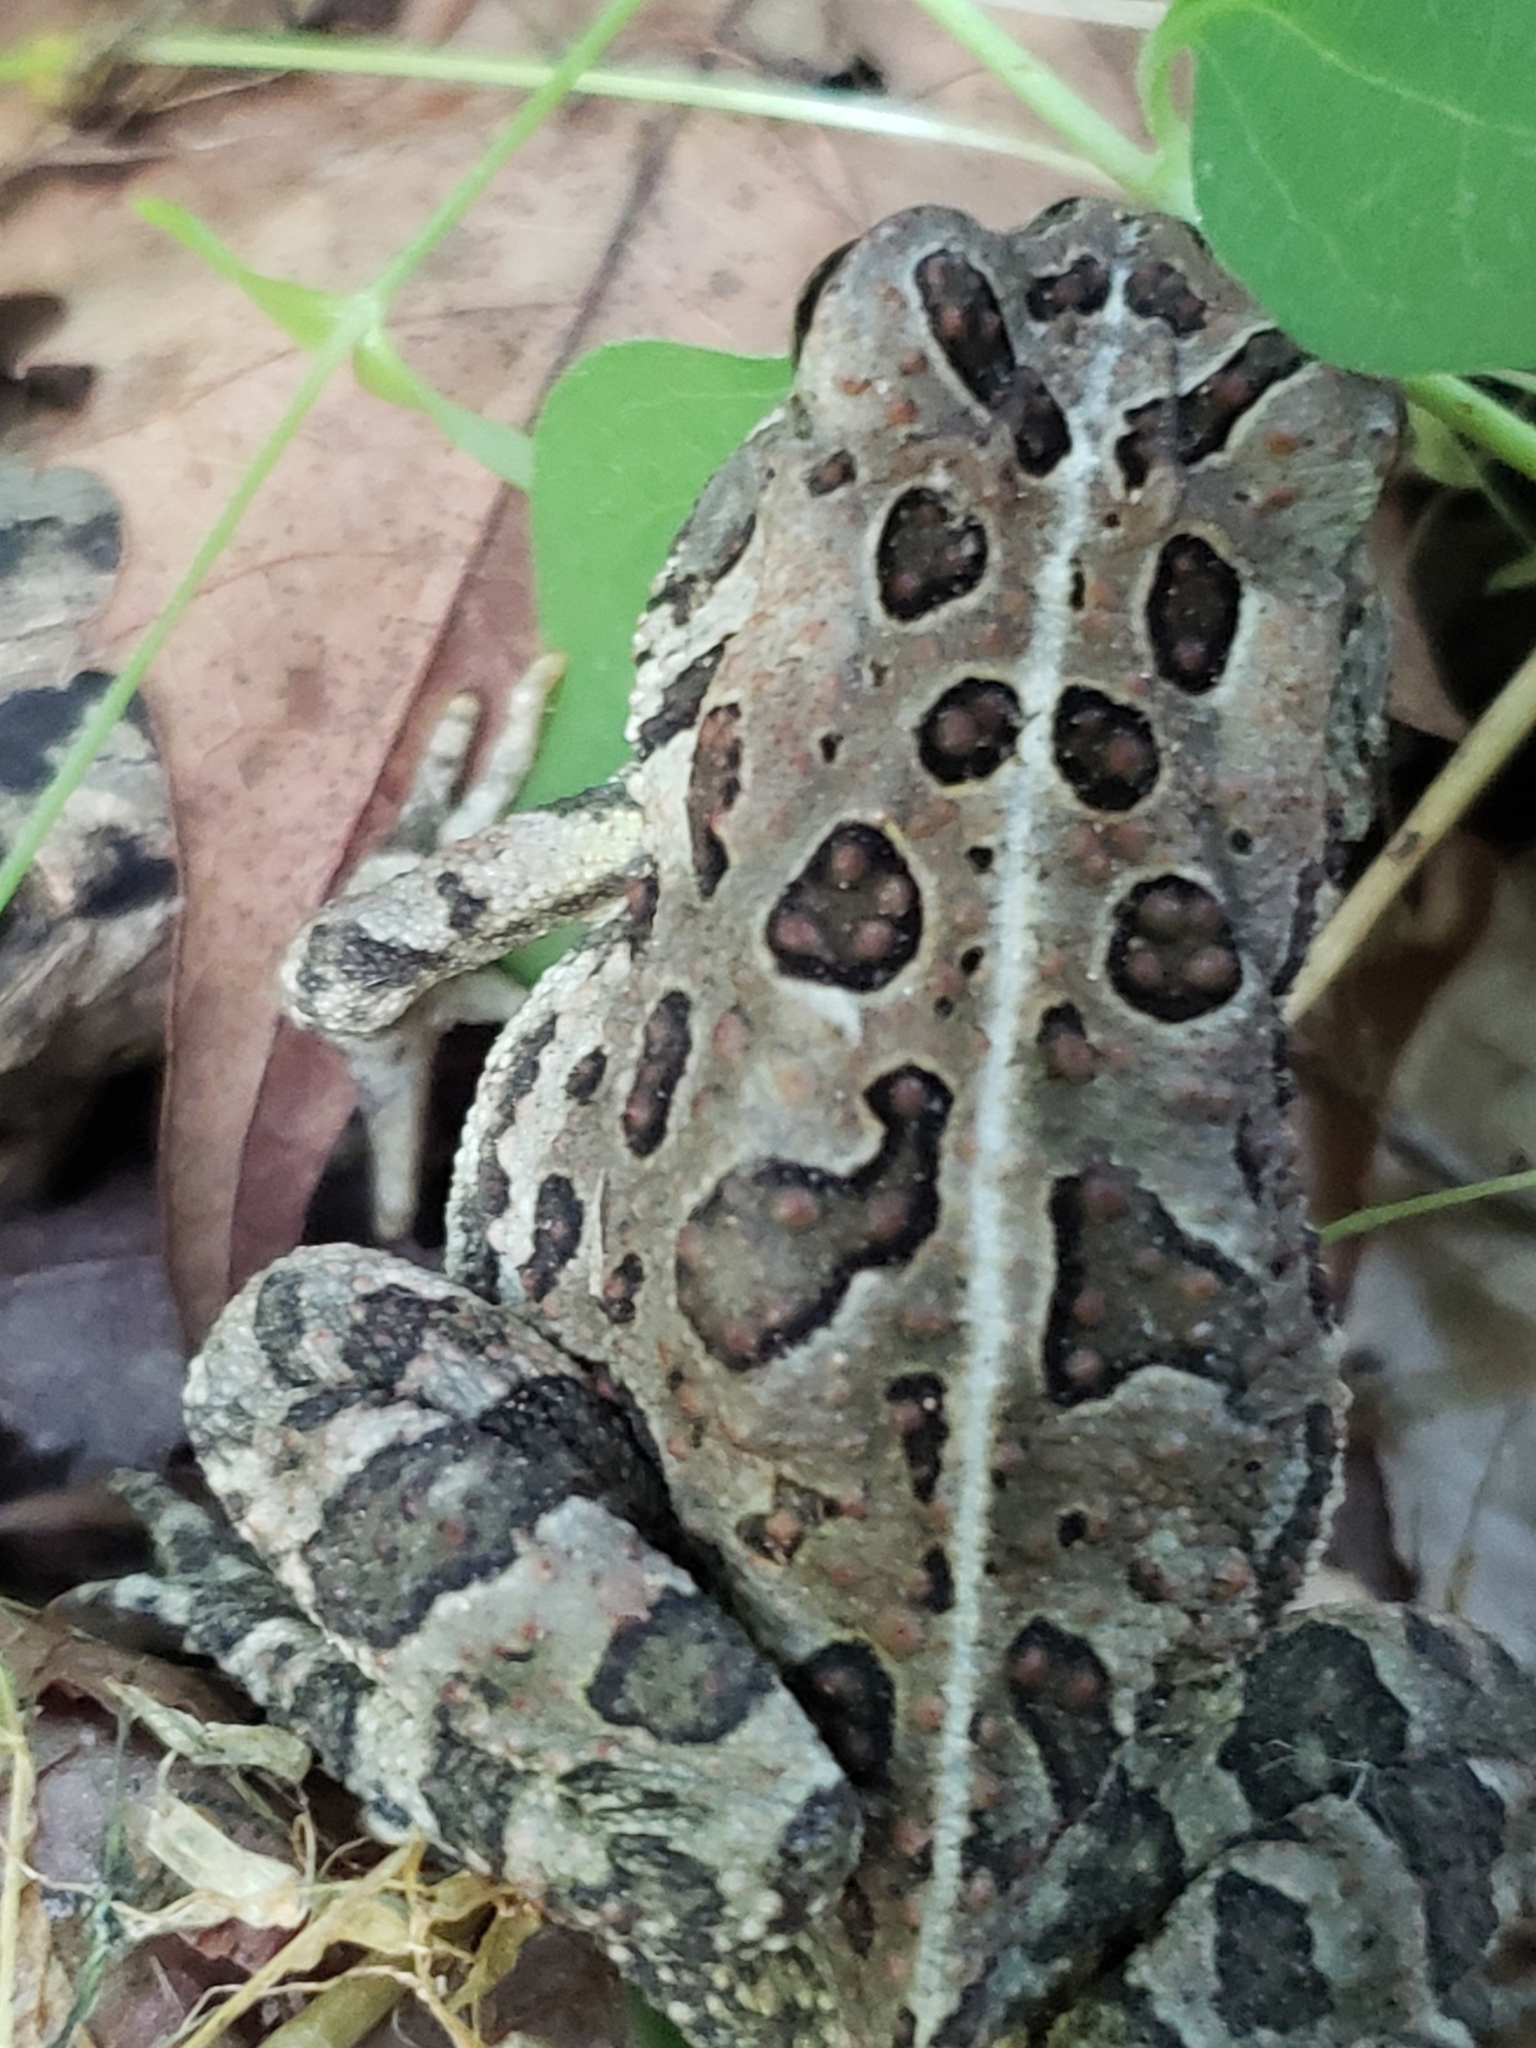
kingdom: Animalia
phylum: Chordata
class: Amphibia
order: Anura
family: Bufonidae
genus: Anaxyrus
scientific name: Anaxyrus fowleri
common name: Fowler's toad
